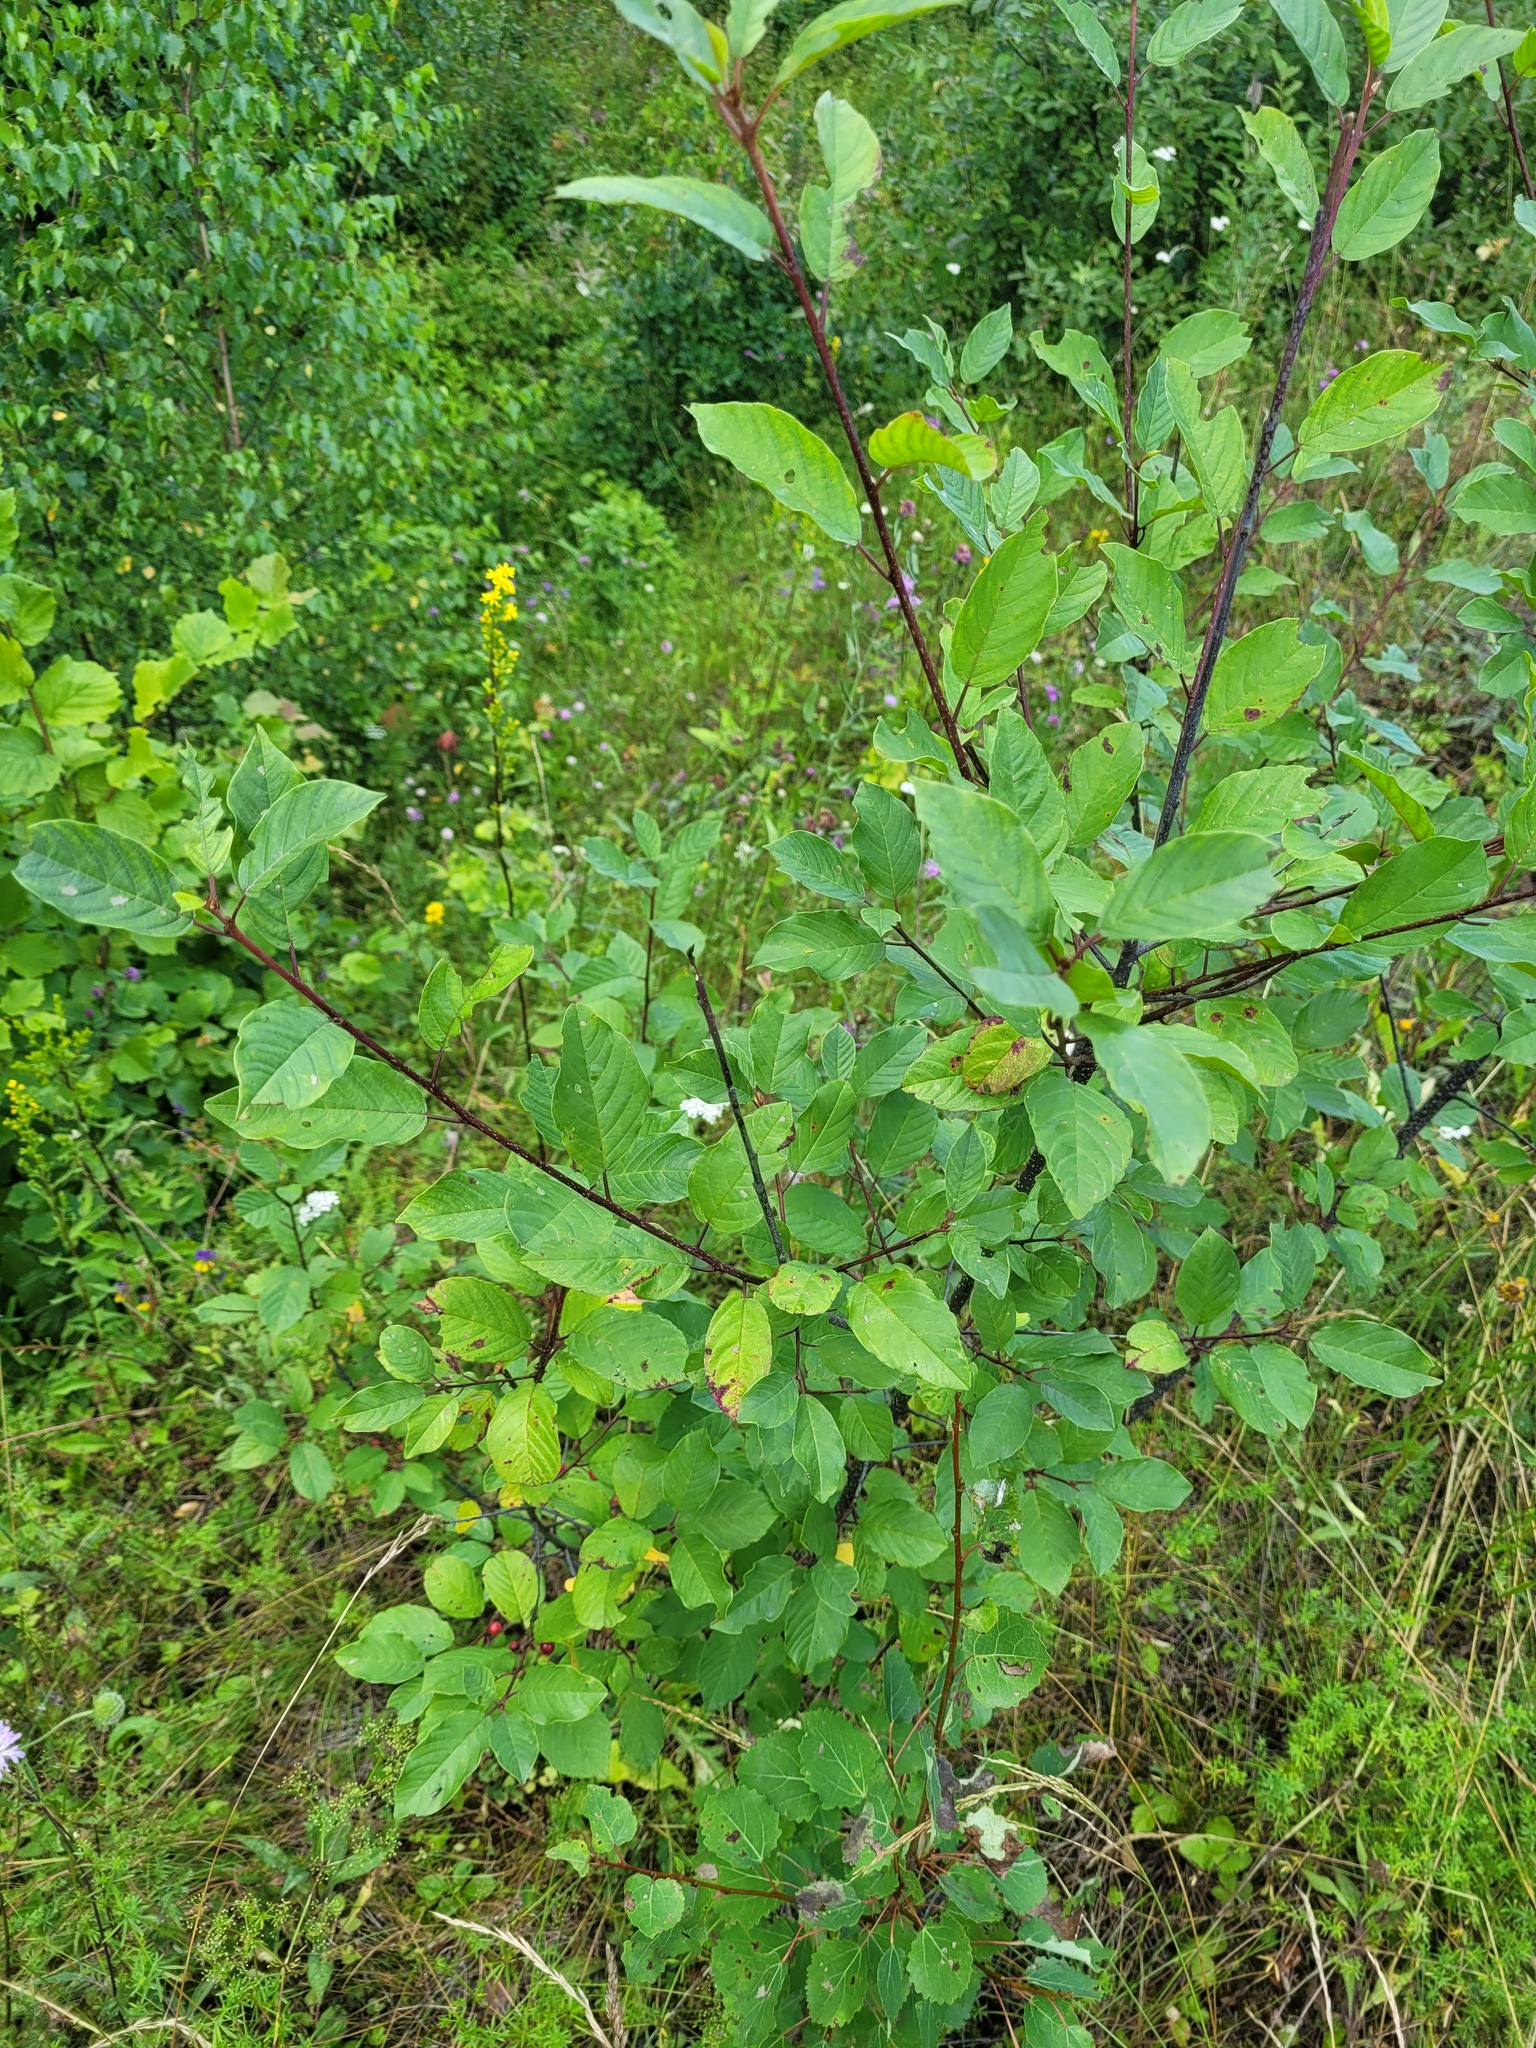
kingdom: Plantae
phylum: Tracheophyta
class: Magnoliopsida
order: Rosales
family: Rhamnaceae
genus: Frangula
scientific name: Frangula alnus
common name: Alder buckthorn
